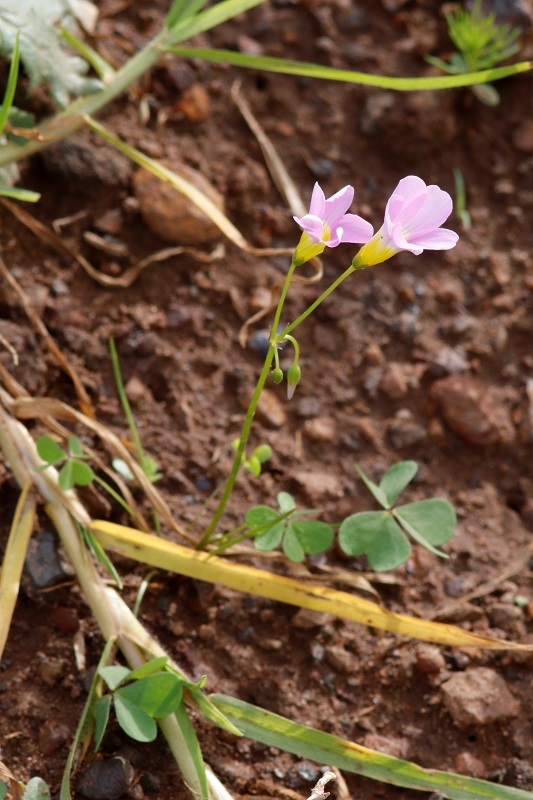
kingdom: Plantae
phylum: Tracheophyta
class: Magnoliopsida
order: Oxalidales
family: Oxalidaceae
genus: Oxalis
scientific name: Oxalis caprina
